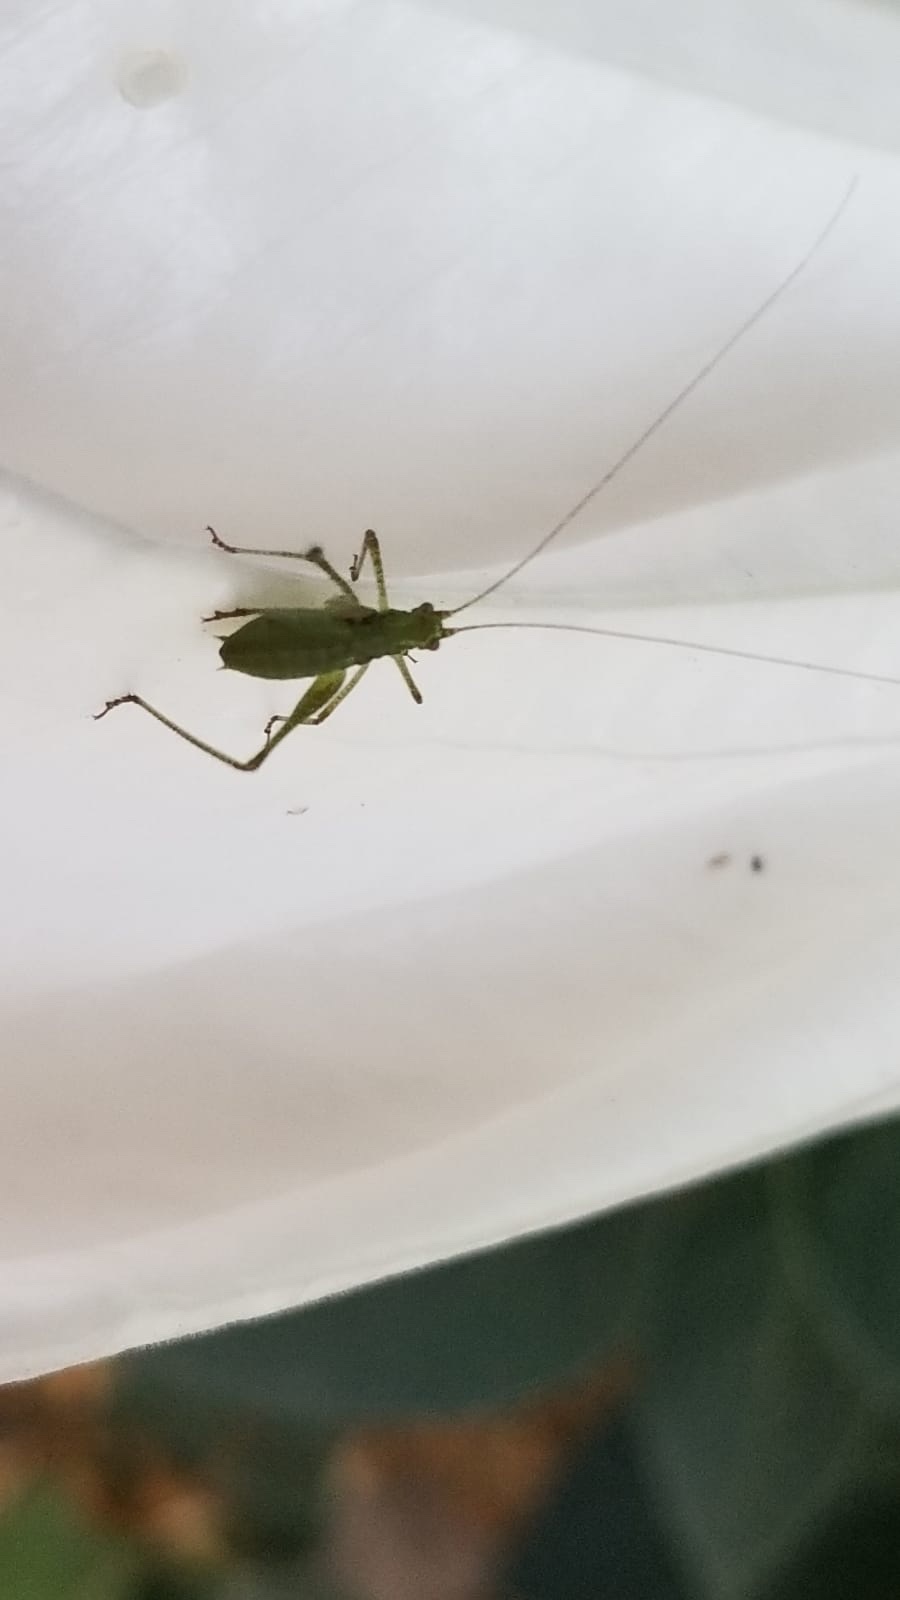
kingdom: Animalia
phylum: Arthropoda
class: Insecta
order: Orthoptera
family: Tettigoniidae
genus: Phaneroptera
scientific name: Phaneroptera nana
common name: Southern sickle bush-cricket
